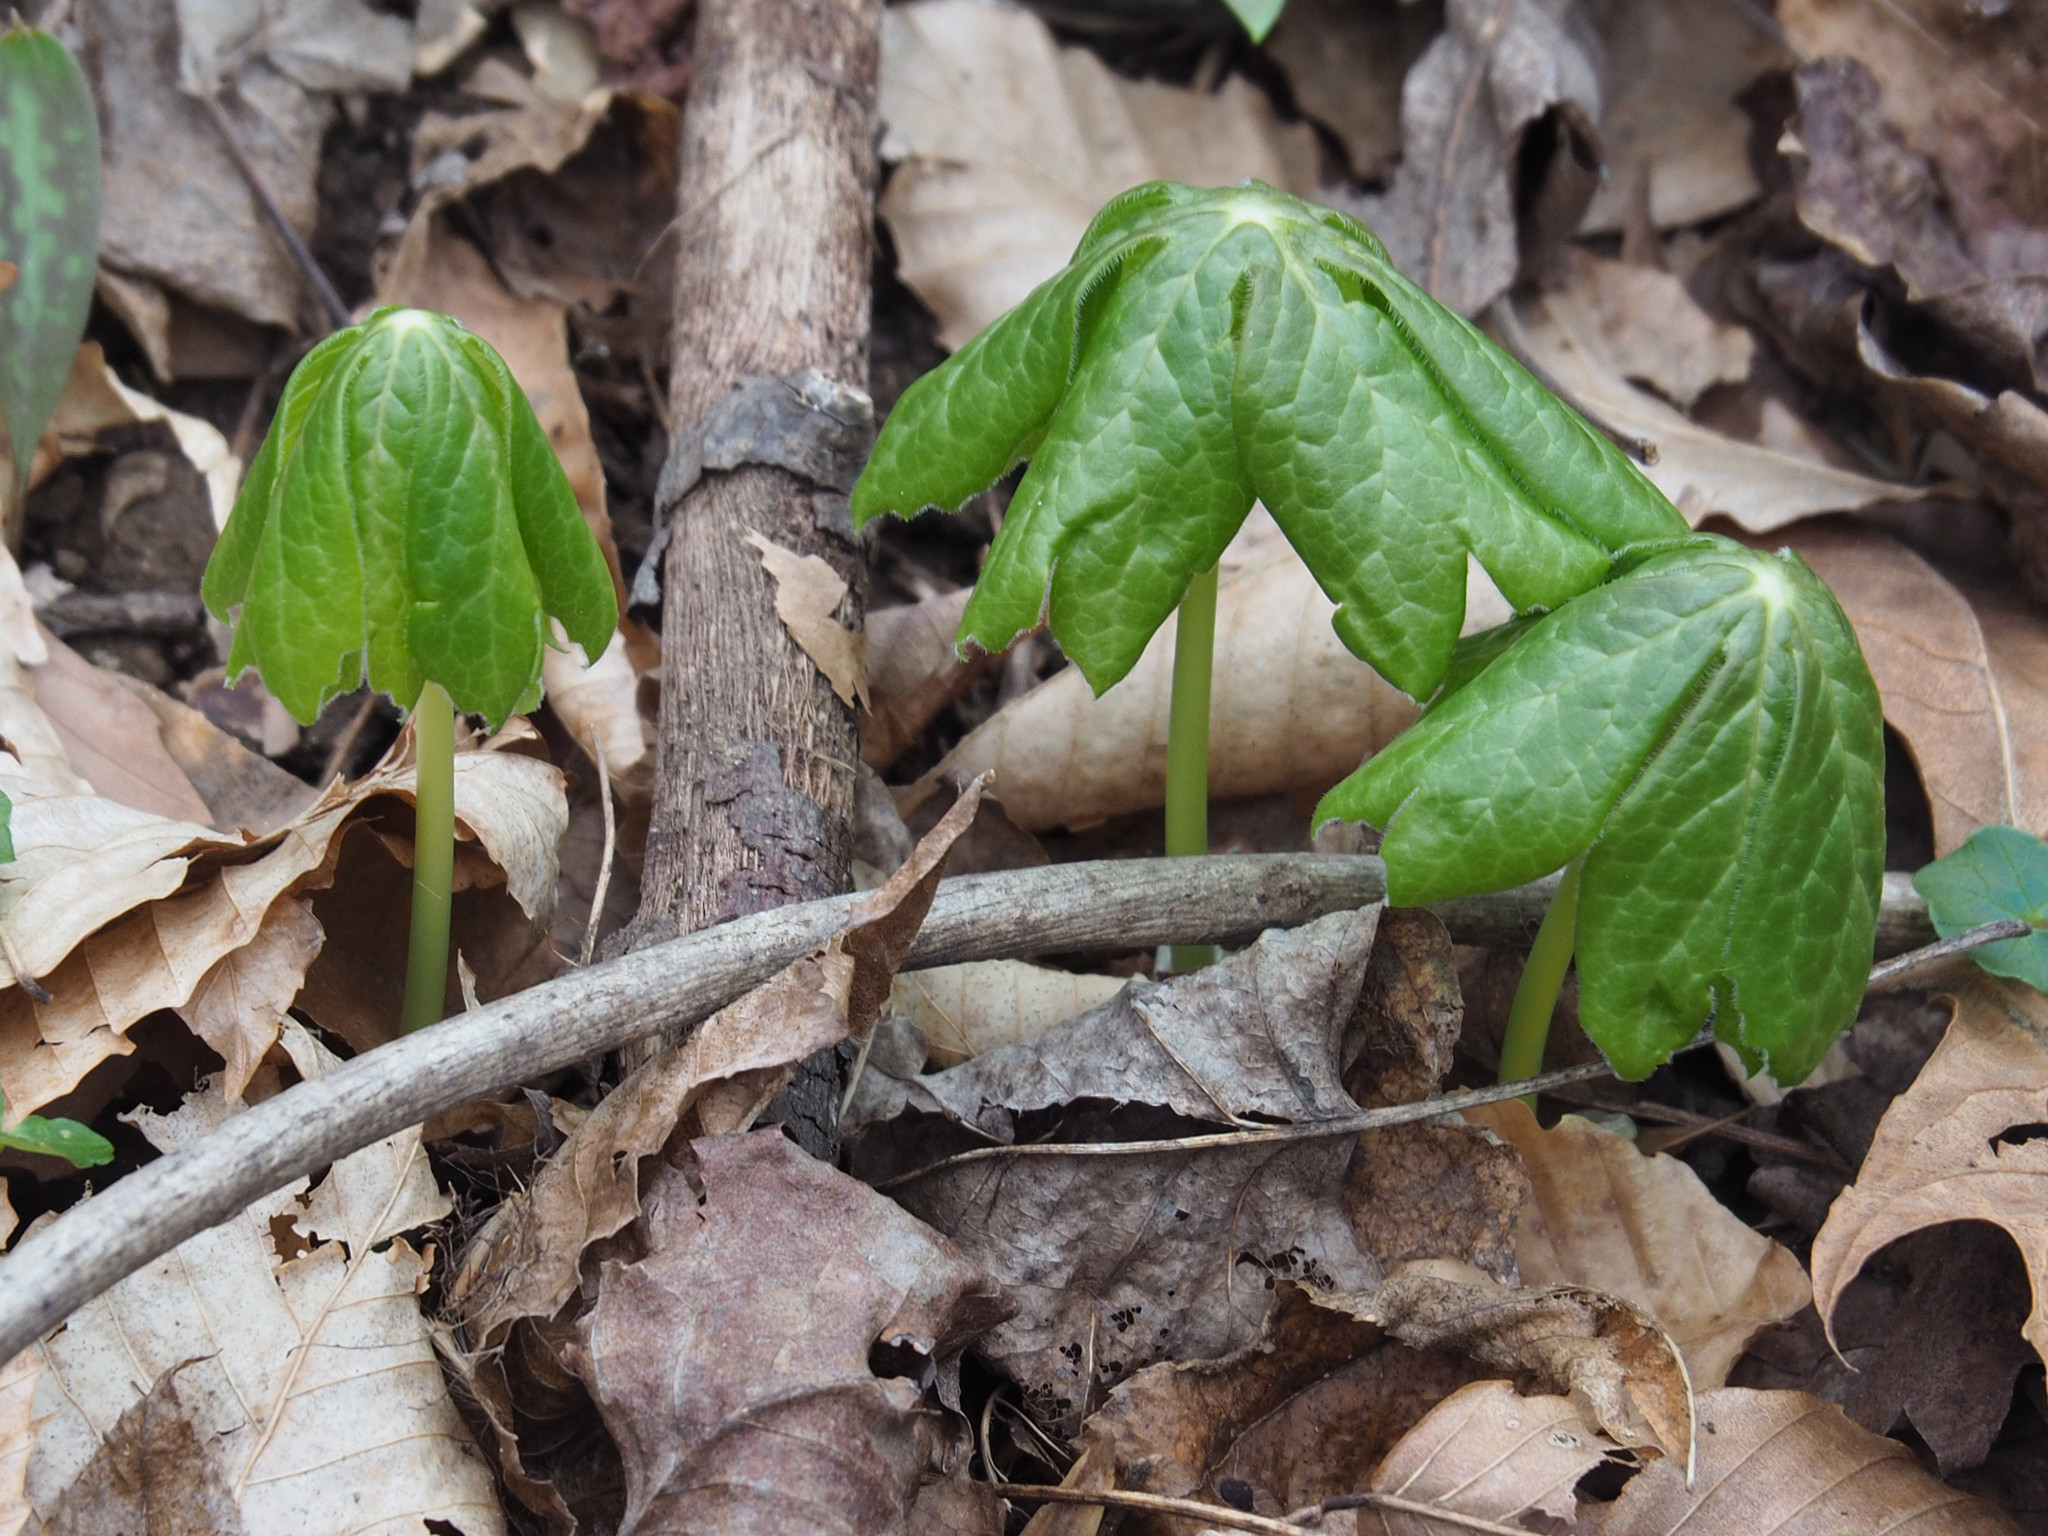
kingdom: Plantae
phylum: Tracheophyta
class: Magnoliopsida
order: Ranunculales
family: Berberidaceae
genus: Podophyllum
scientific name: Podophyllum peltatum
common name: Wild mandrake
